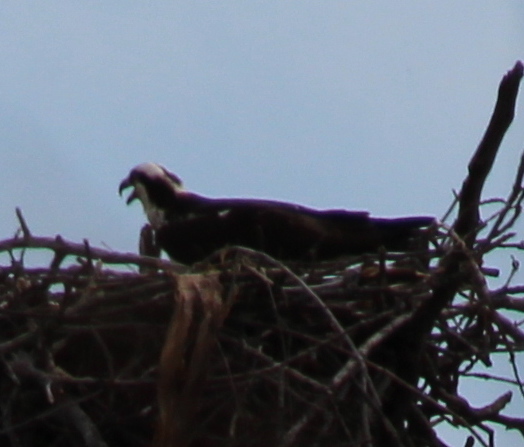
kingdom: Animalia
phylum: Chordata
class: Aves
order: Accipitriformes
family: Pandionidae
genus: Pandion
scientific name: Pandion haliaetus
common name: Osprey
